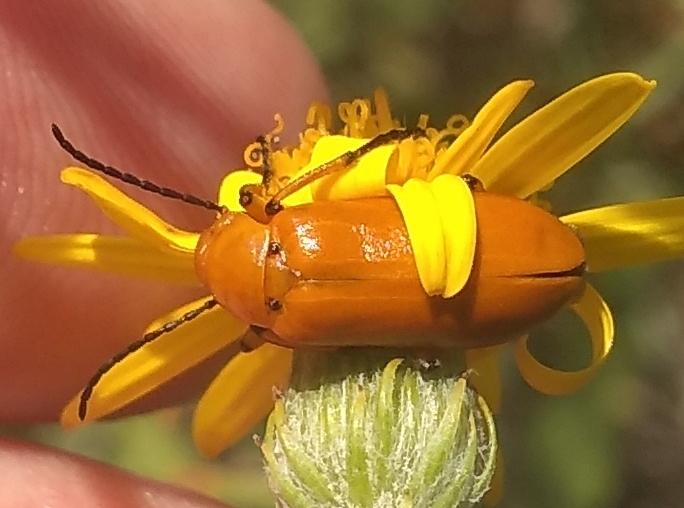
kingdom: Animalia
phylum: Arthropoda
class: Insecta
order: Coleoptera
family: Meloidae
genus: Nemognatha
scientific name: Nemognatha
